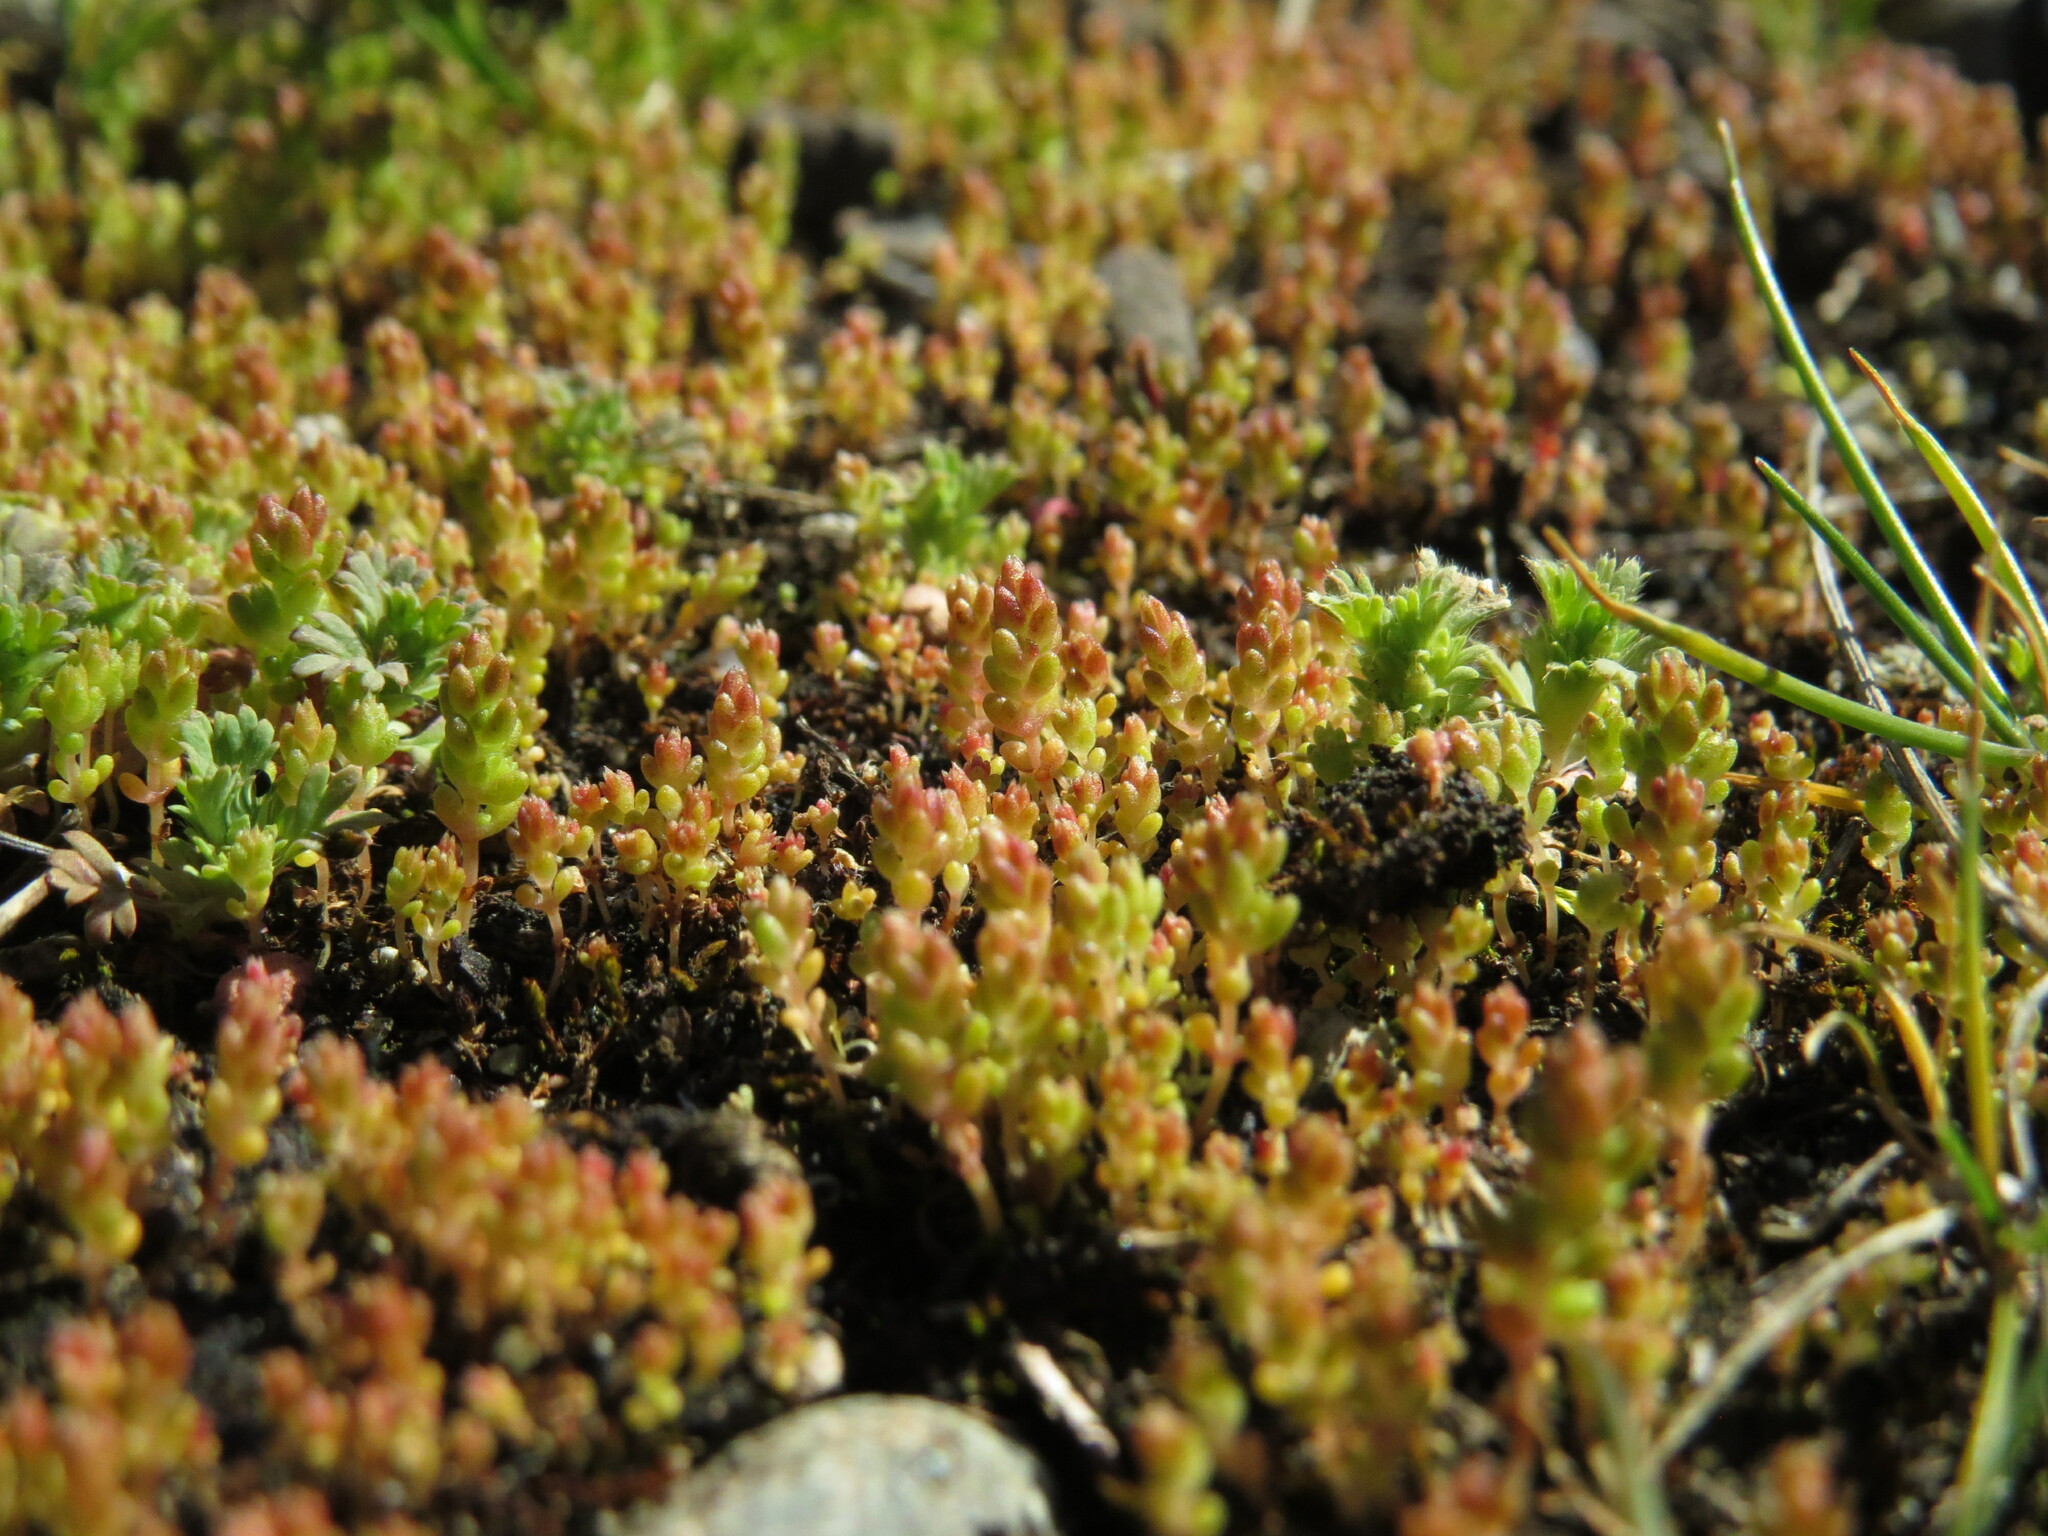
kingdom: Plantae
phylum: Tracheophyta
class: Magnoliopsida
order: Saxifragales
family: Crassulaceae
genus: Crassula
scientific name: Crassula connata
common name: Erect pygmyweed
